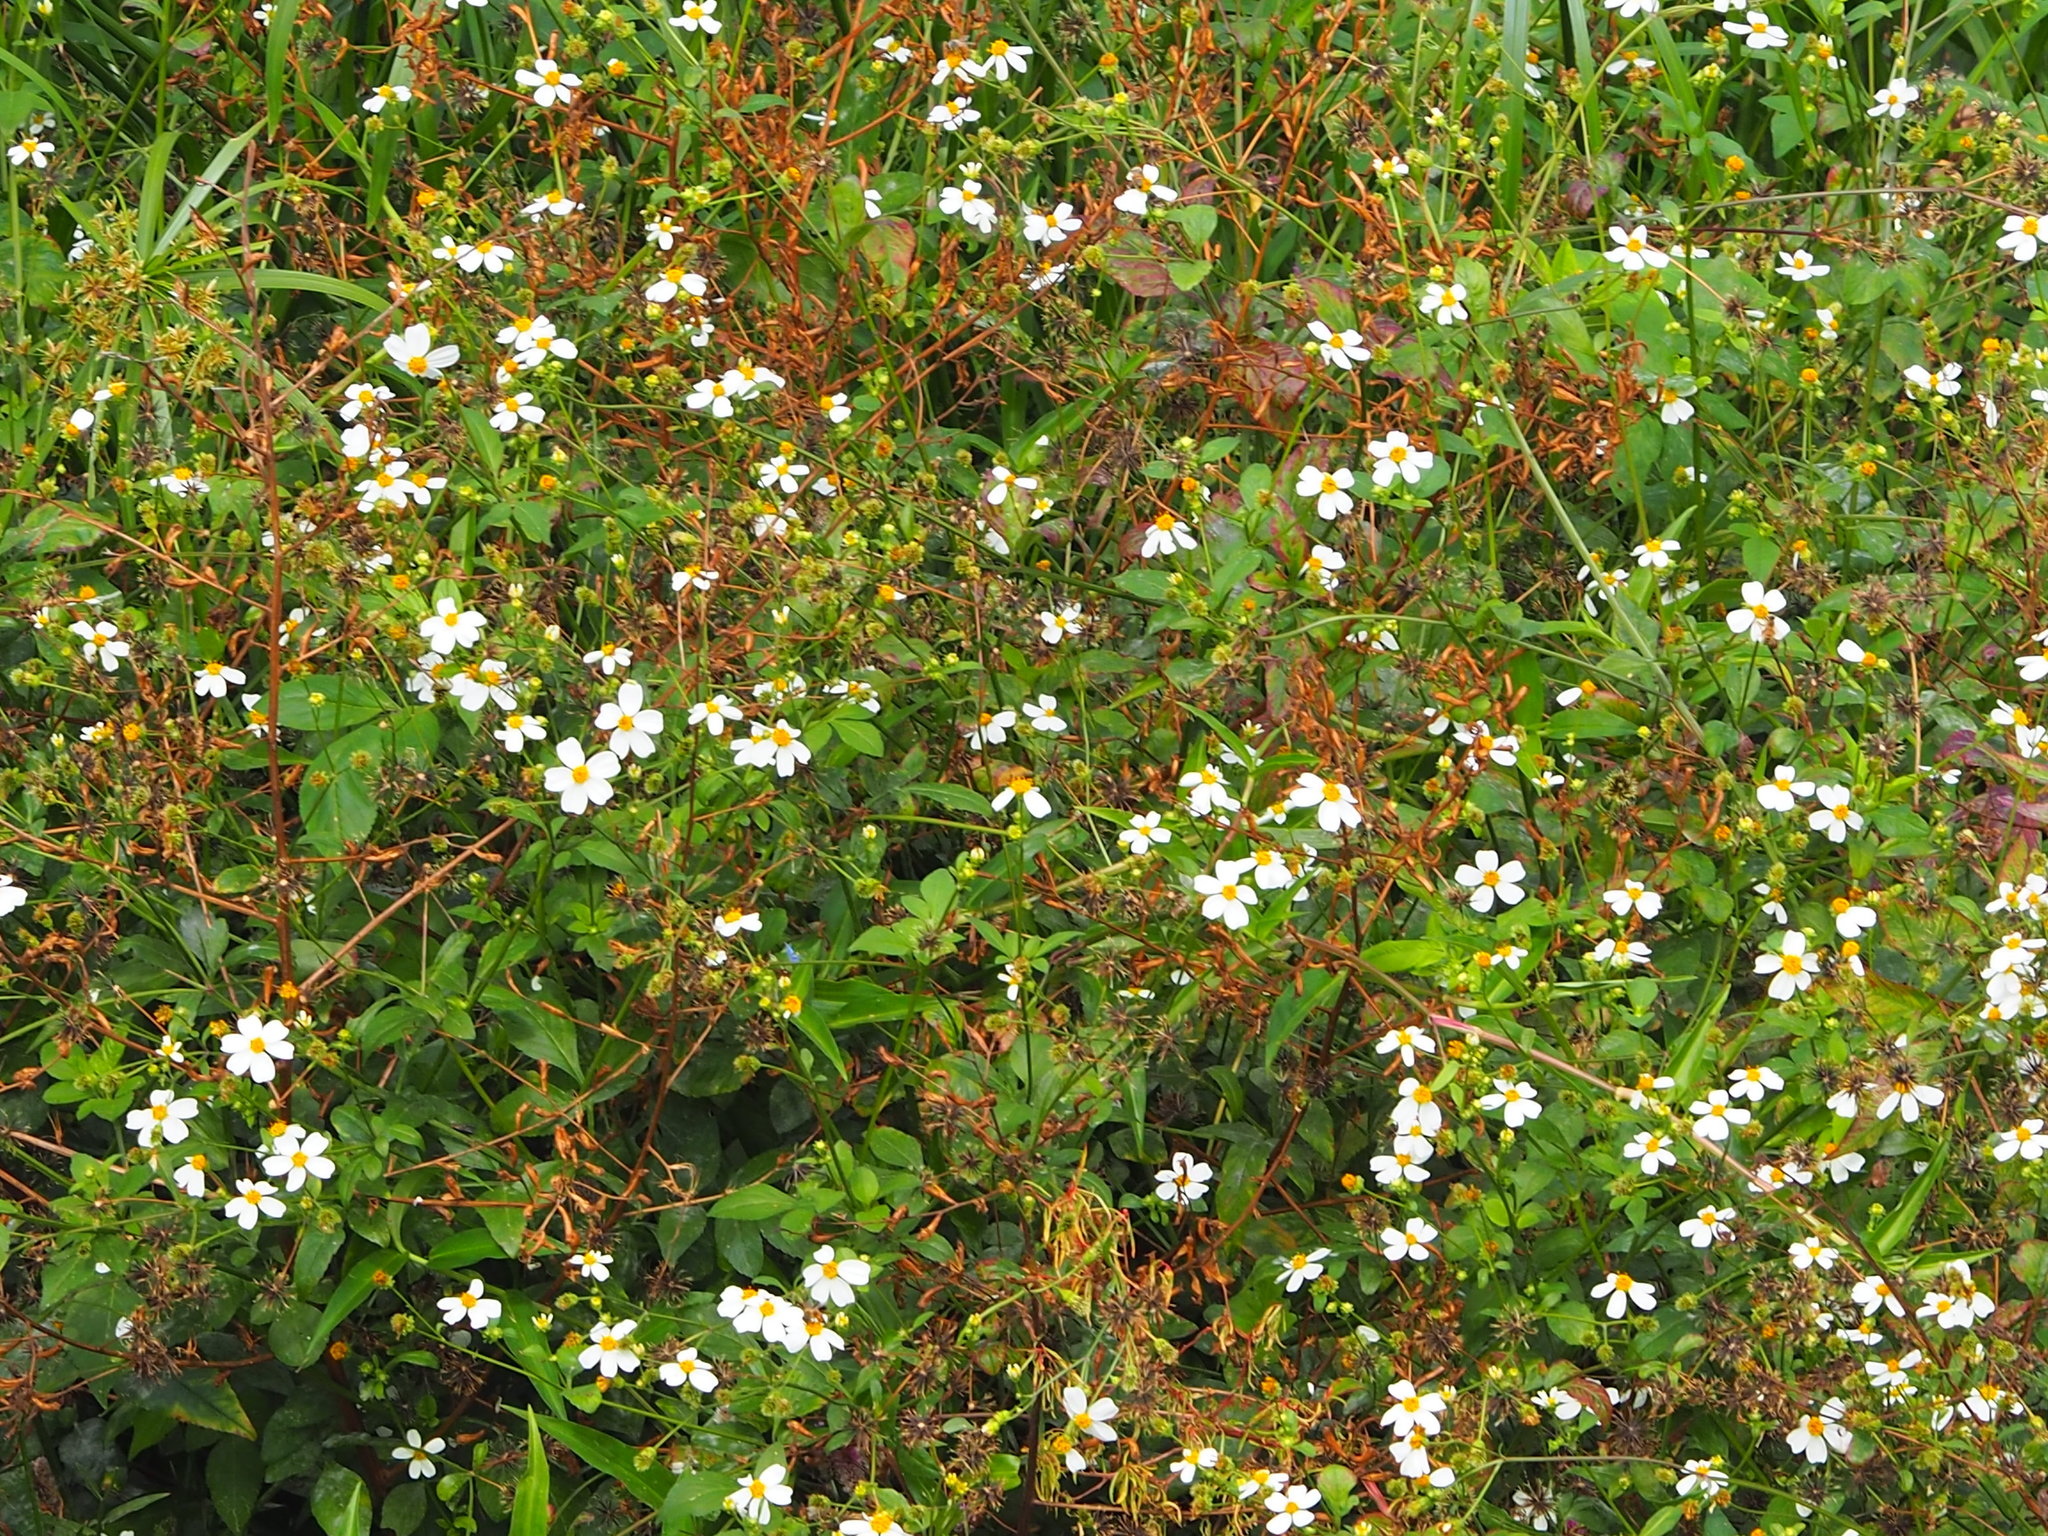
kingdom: Plantae
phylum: Tracheophyta
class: Magnoliopsida
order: Asterales
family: Asteraceae
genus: Bidens
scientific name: Bidens alba
